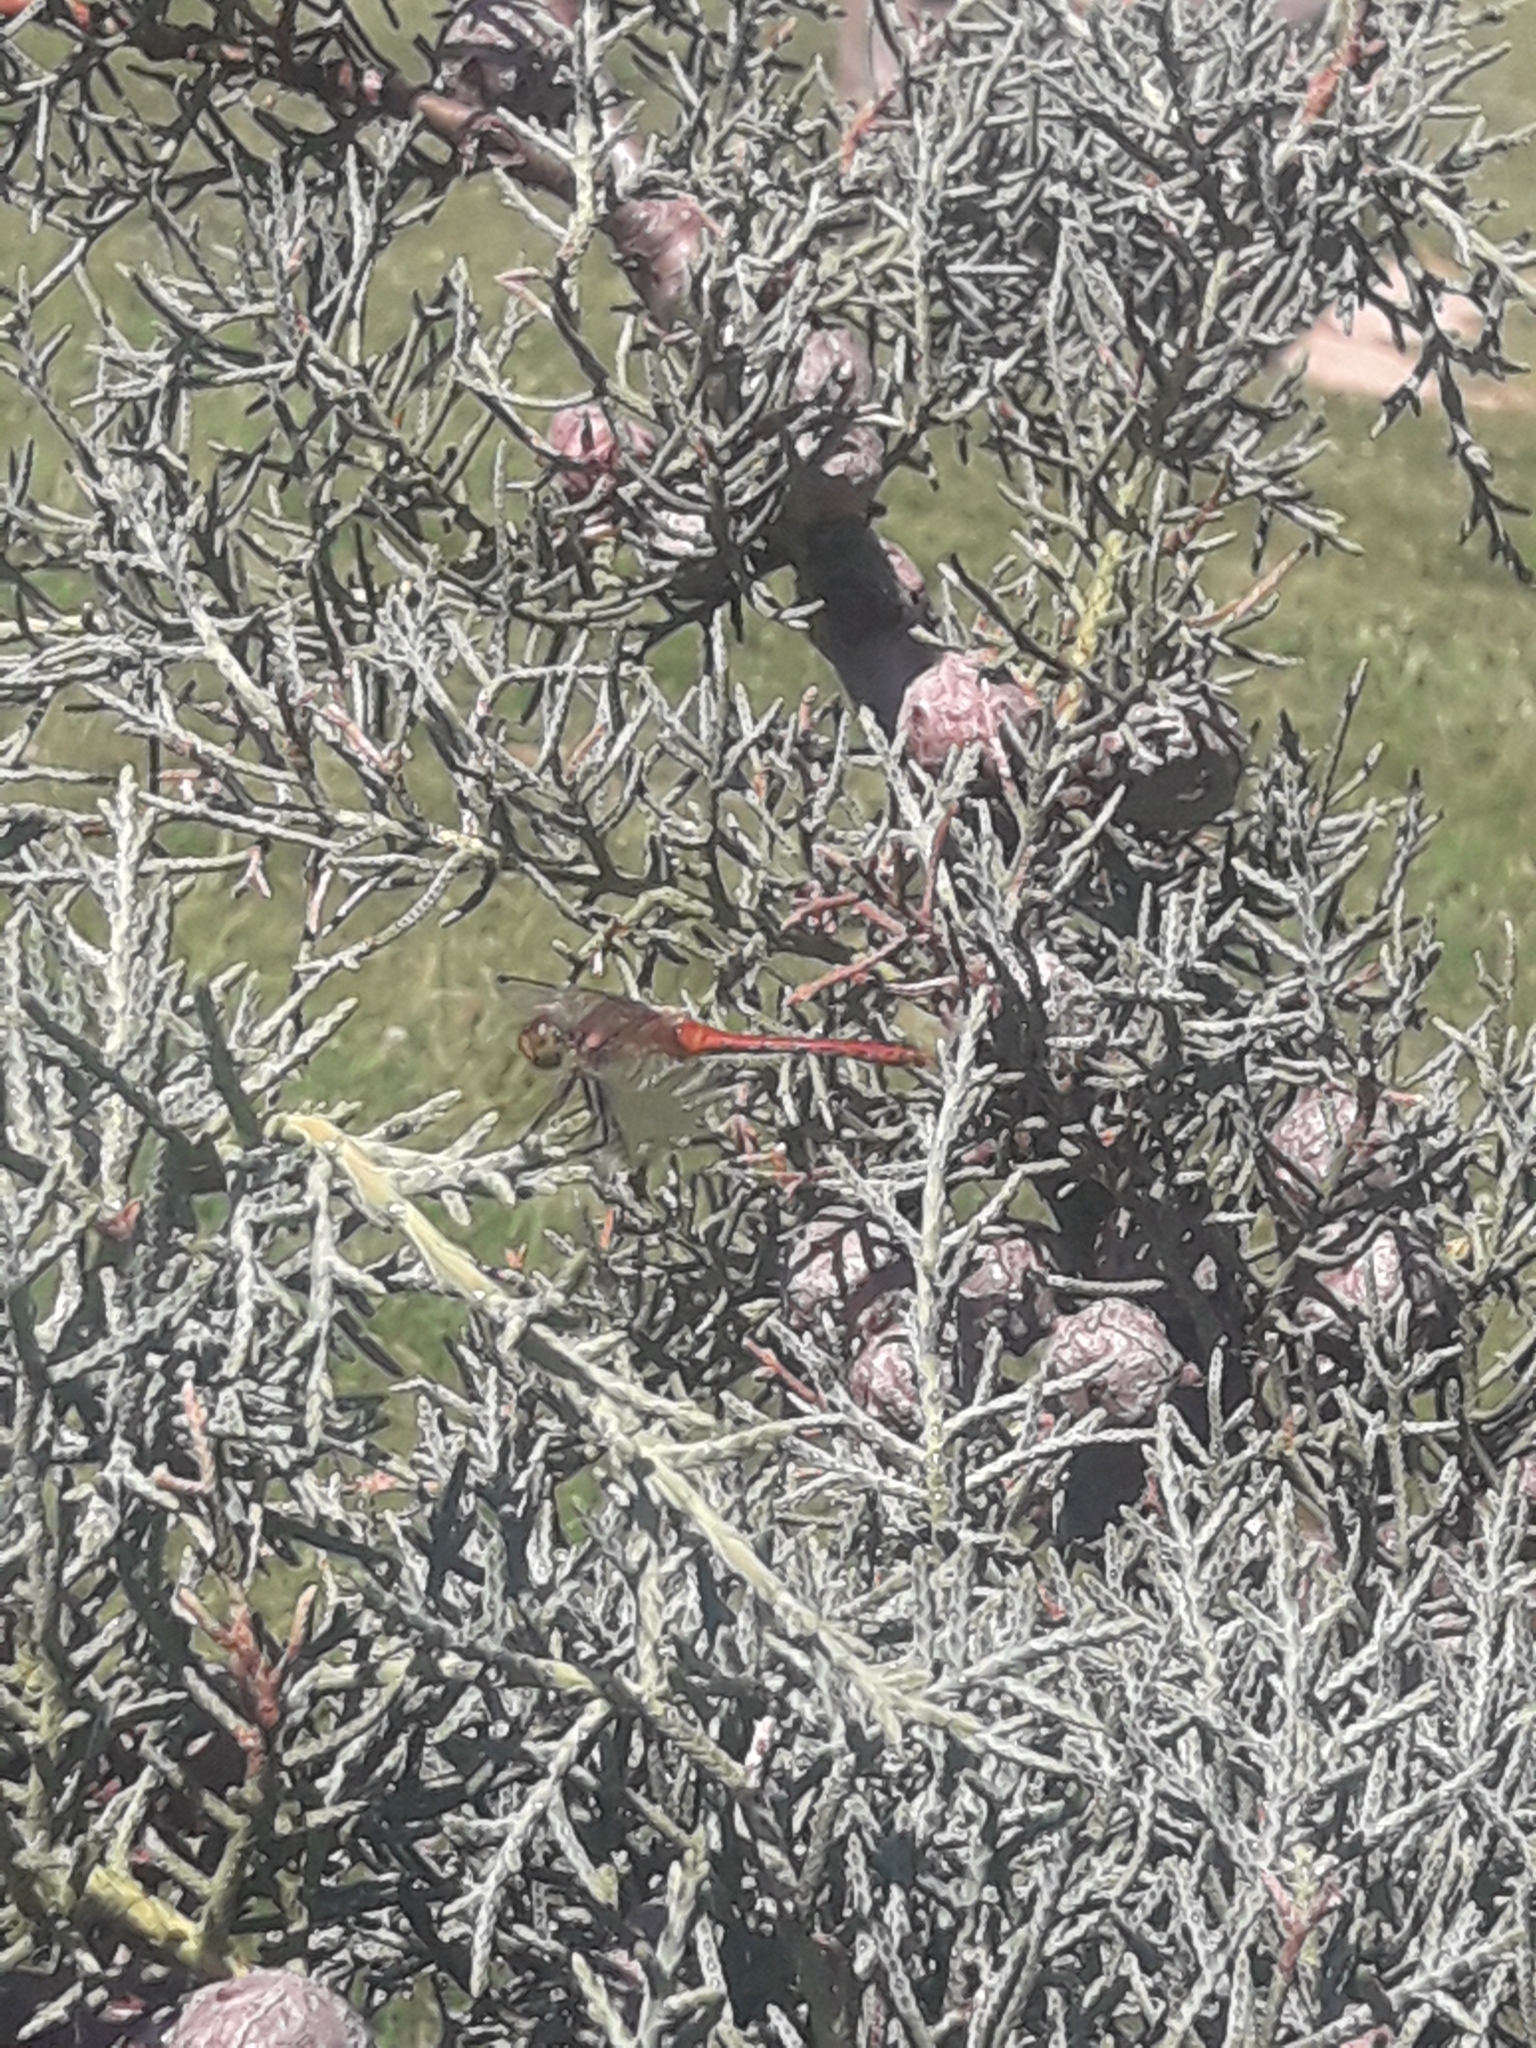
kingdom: Animalia
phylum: Arthropoda
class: Insecta
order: Odonata
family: Libellulidae
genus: Sympetrum
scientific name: Sympetrum sanguineum
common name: Ruddy darter
